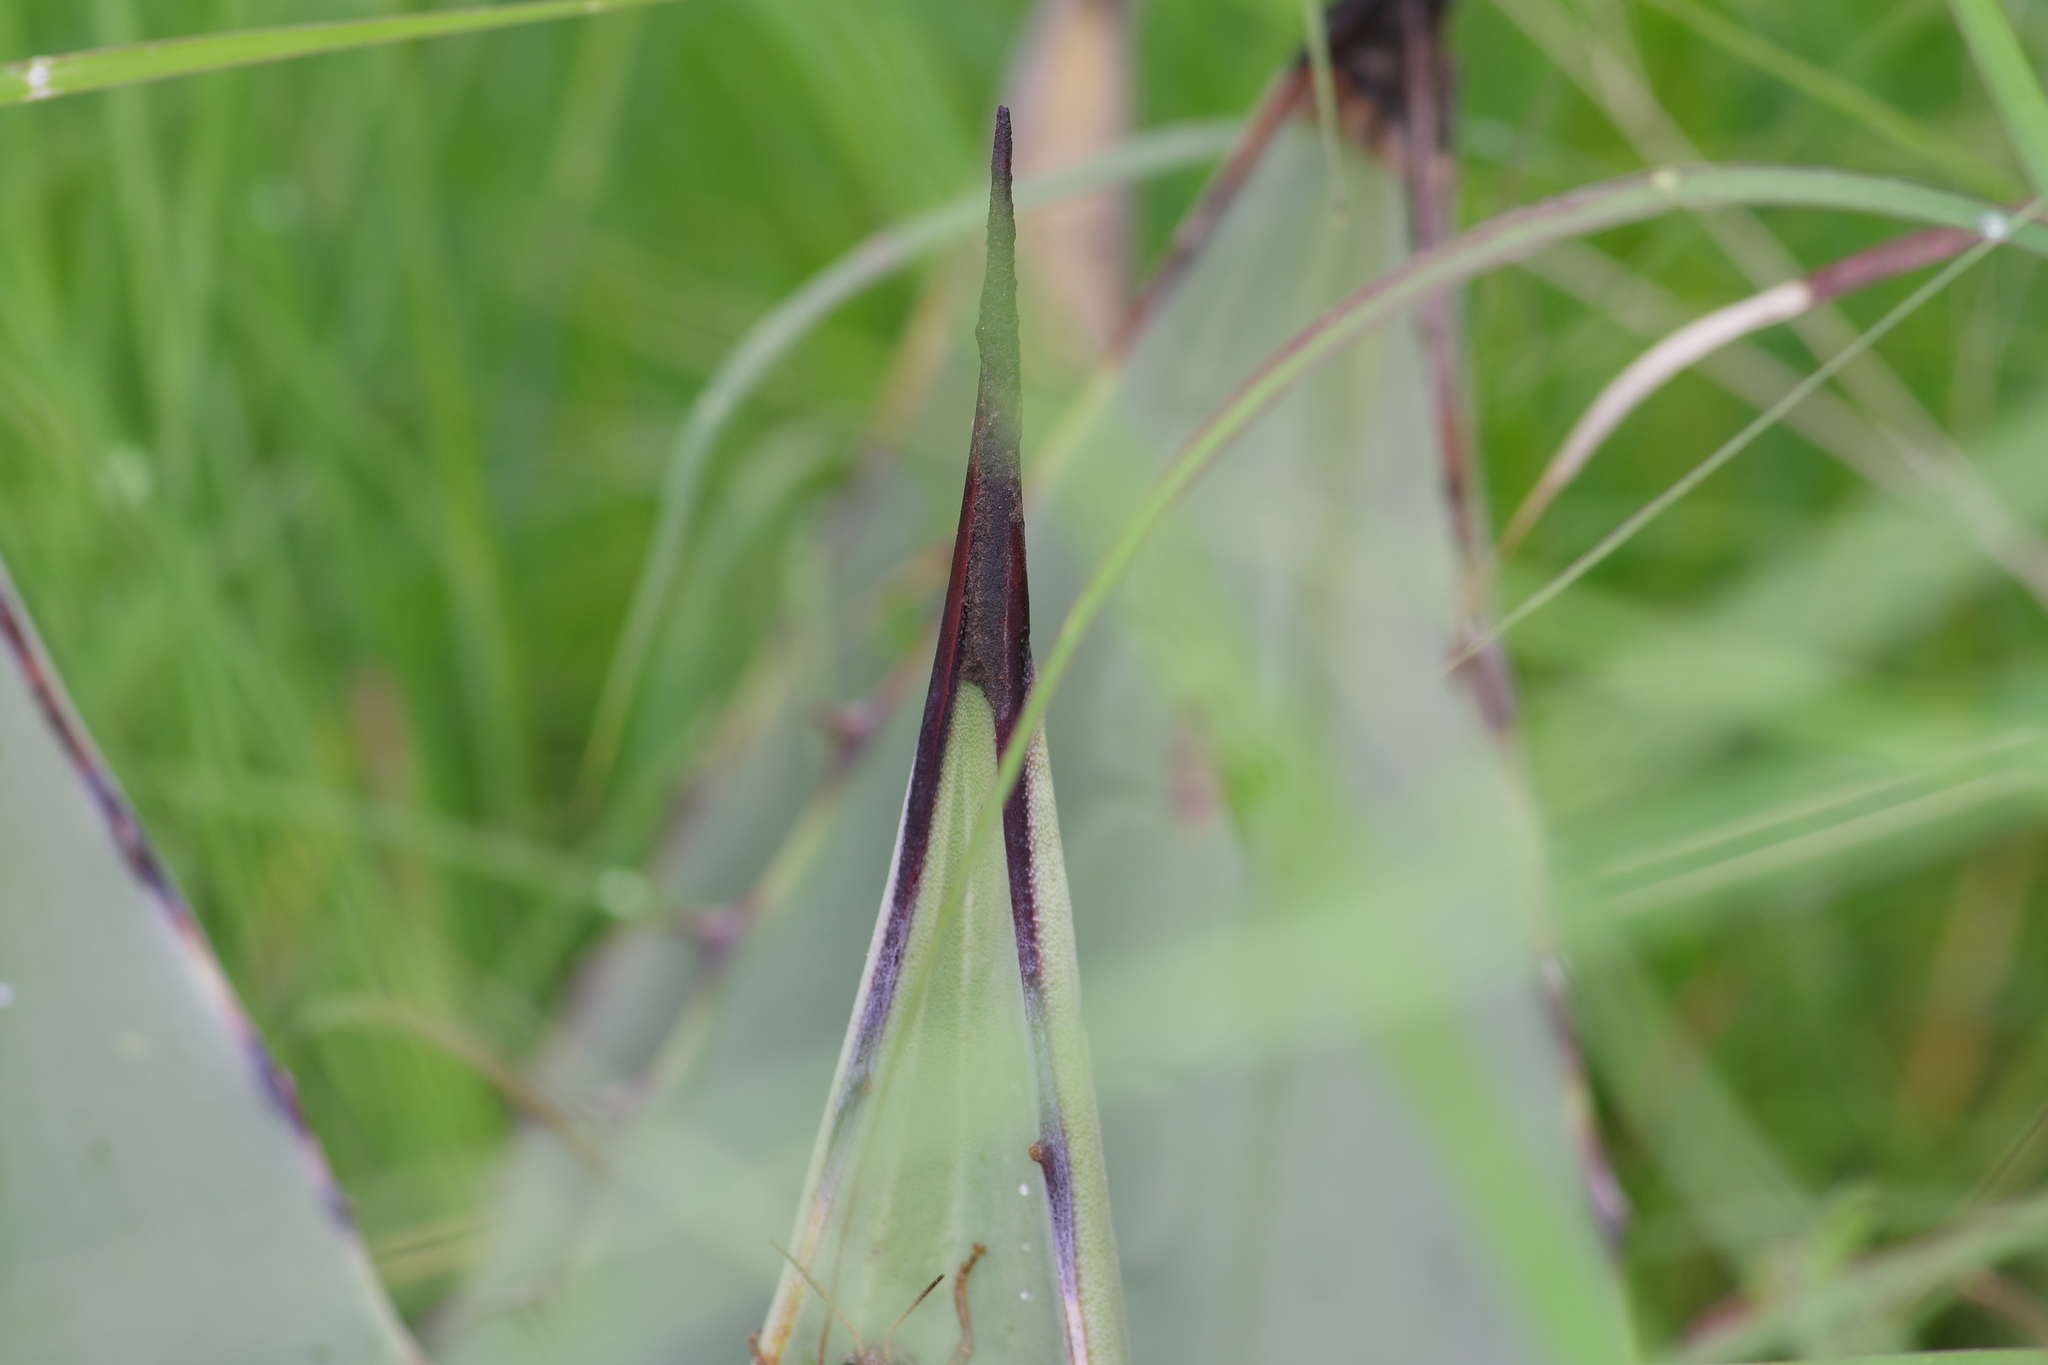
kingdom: Plantae
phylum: Tracheophyta
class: Liliopsida
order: Asparagales
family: Asparagaceae
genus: Agave
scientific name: Agave parryi
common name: Parry's agave
